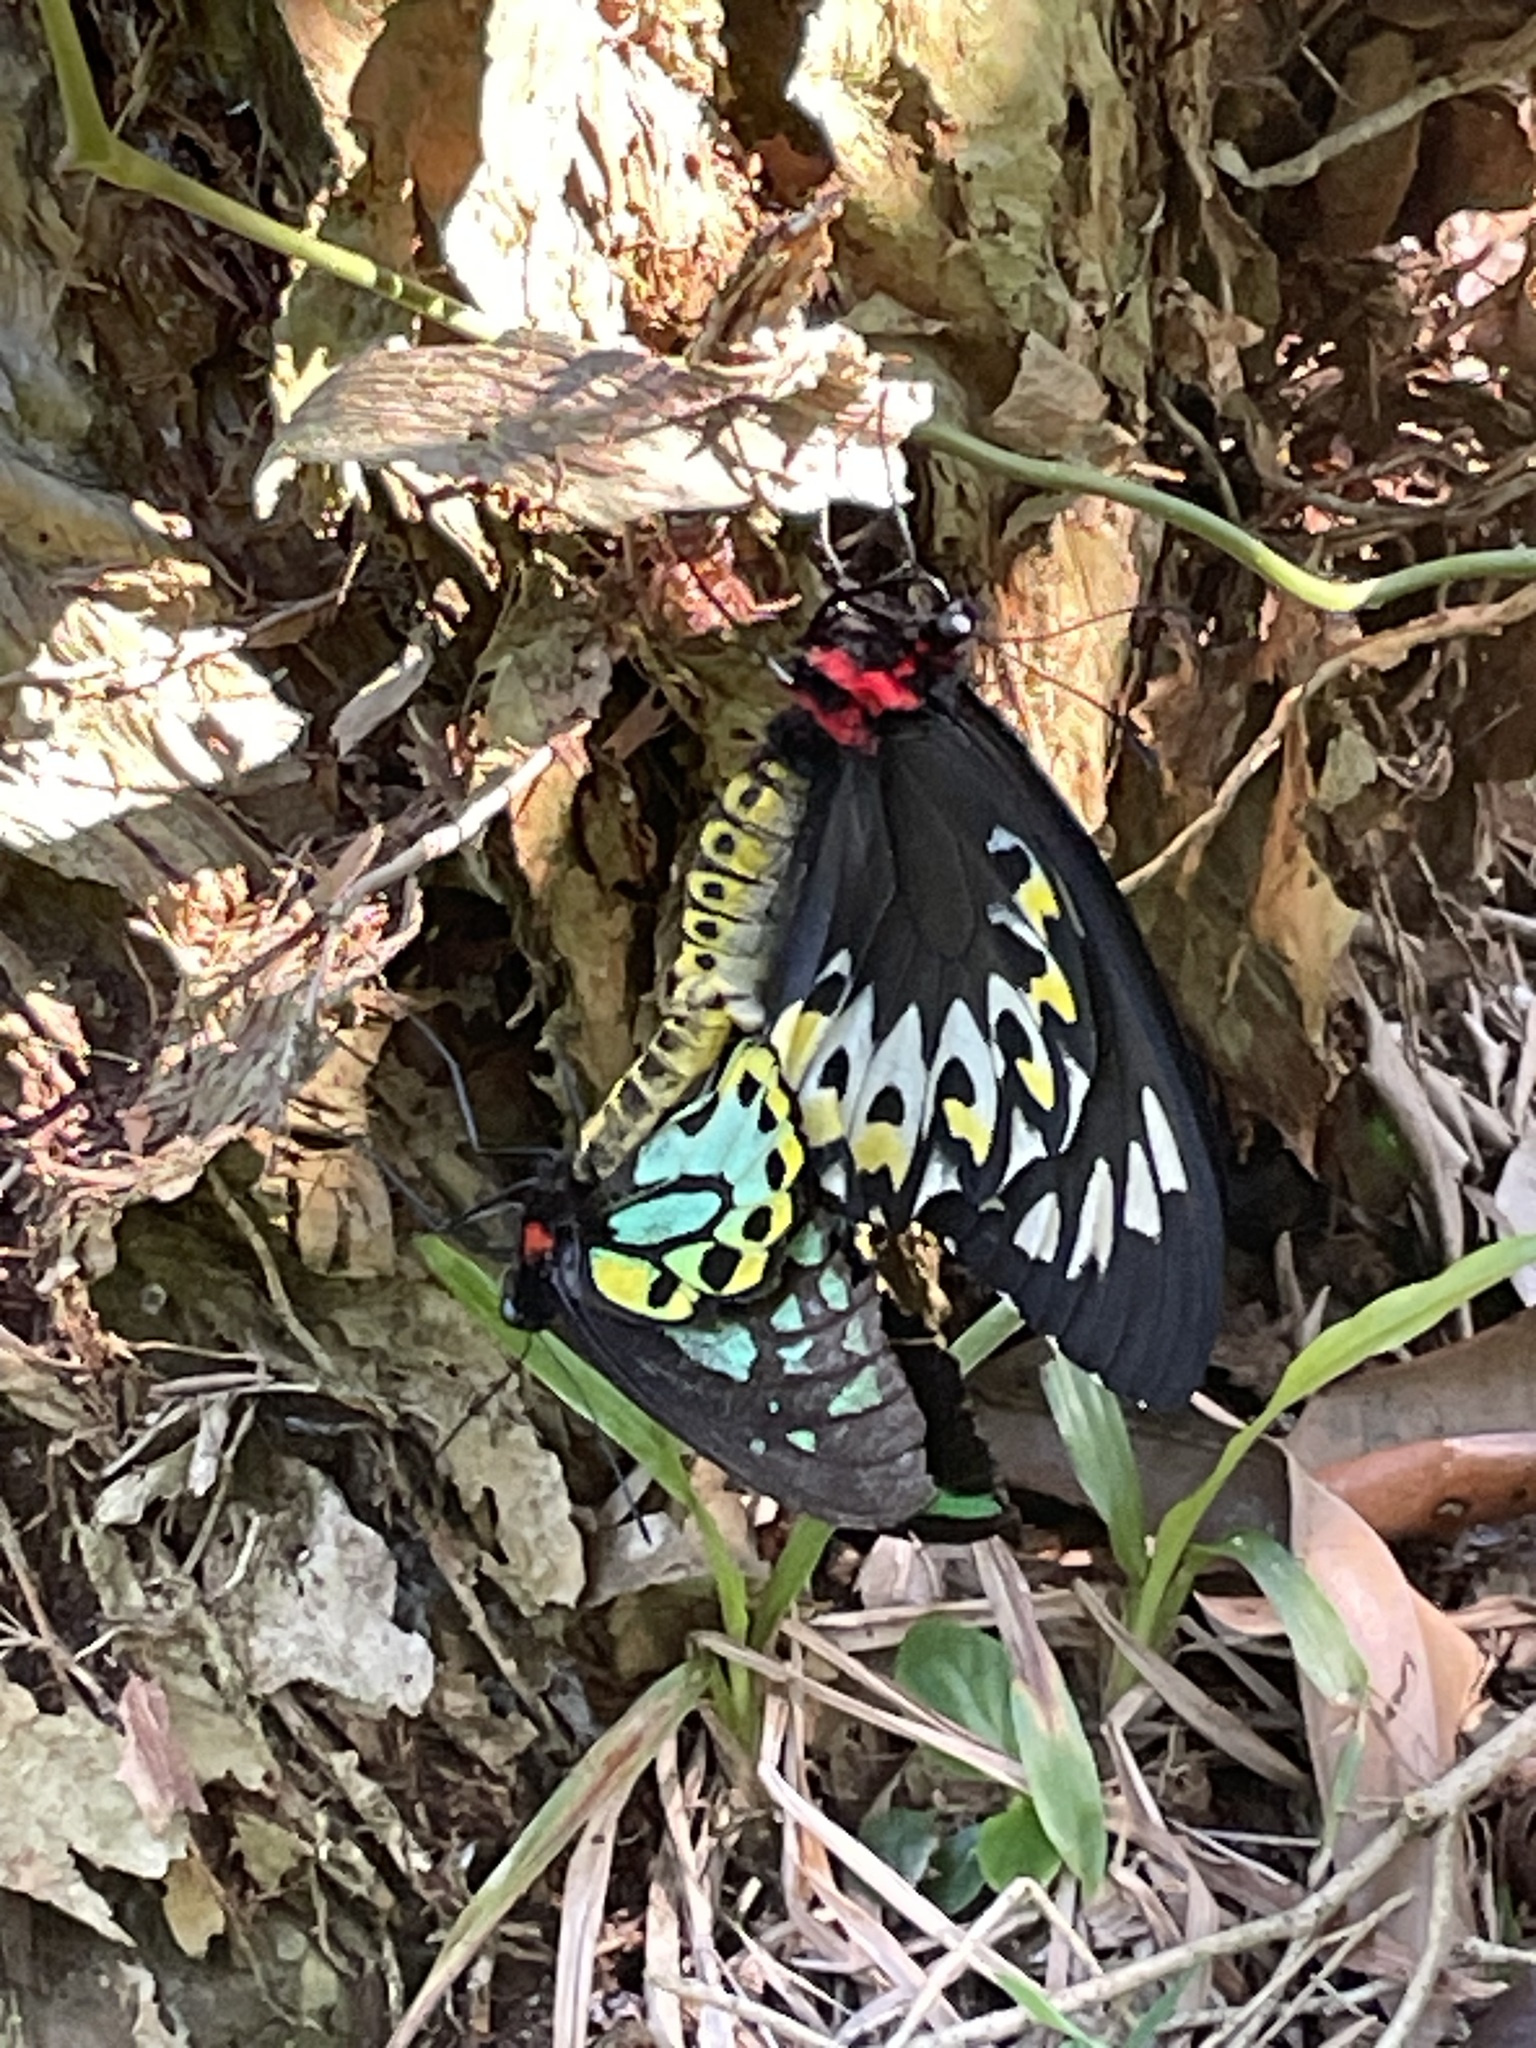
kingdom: Animalia
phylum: Arthropoda
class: Insecta
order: Lepidoptera
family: Papilionidae
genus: Ornithoptera
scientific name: Ornithoptera richmondia
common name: Richmond birdwing
